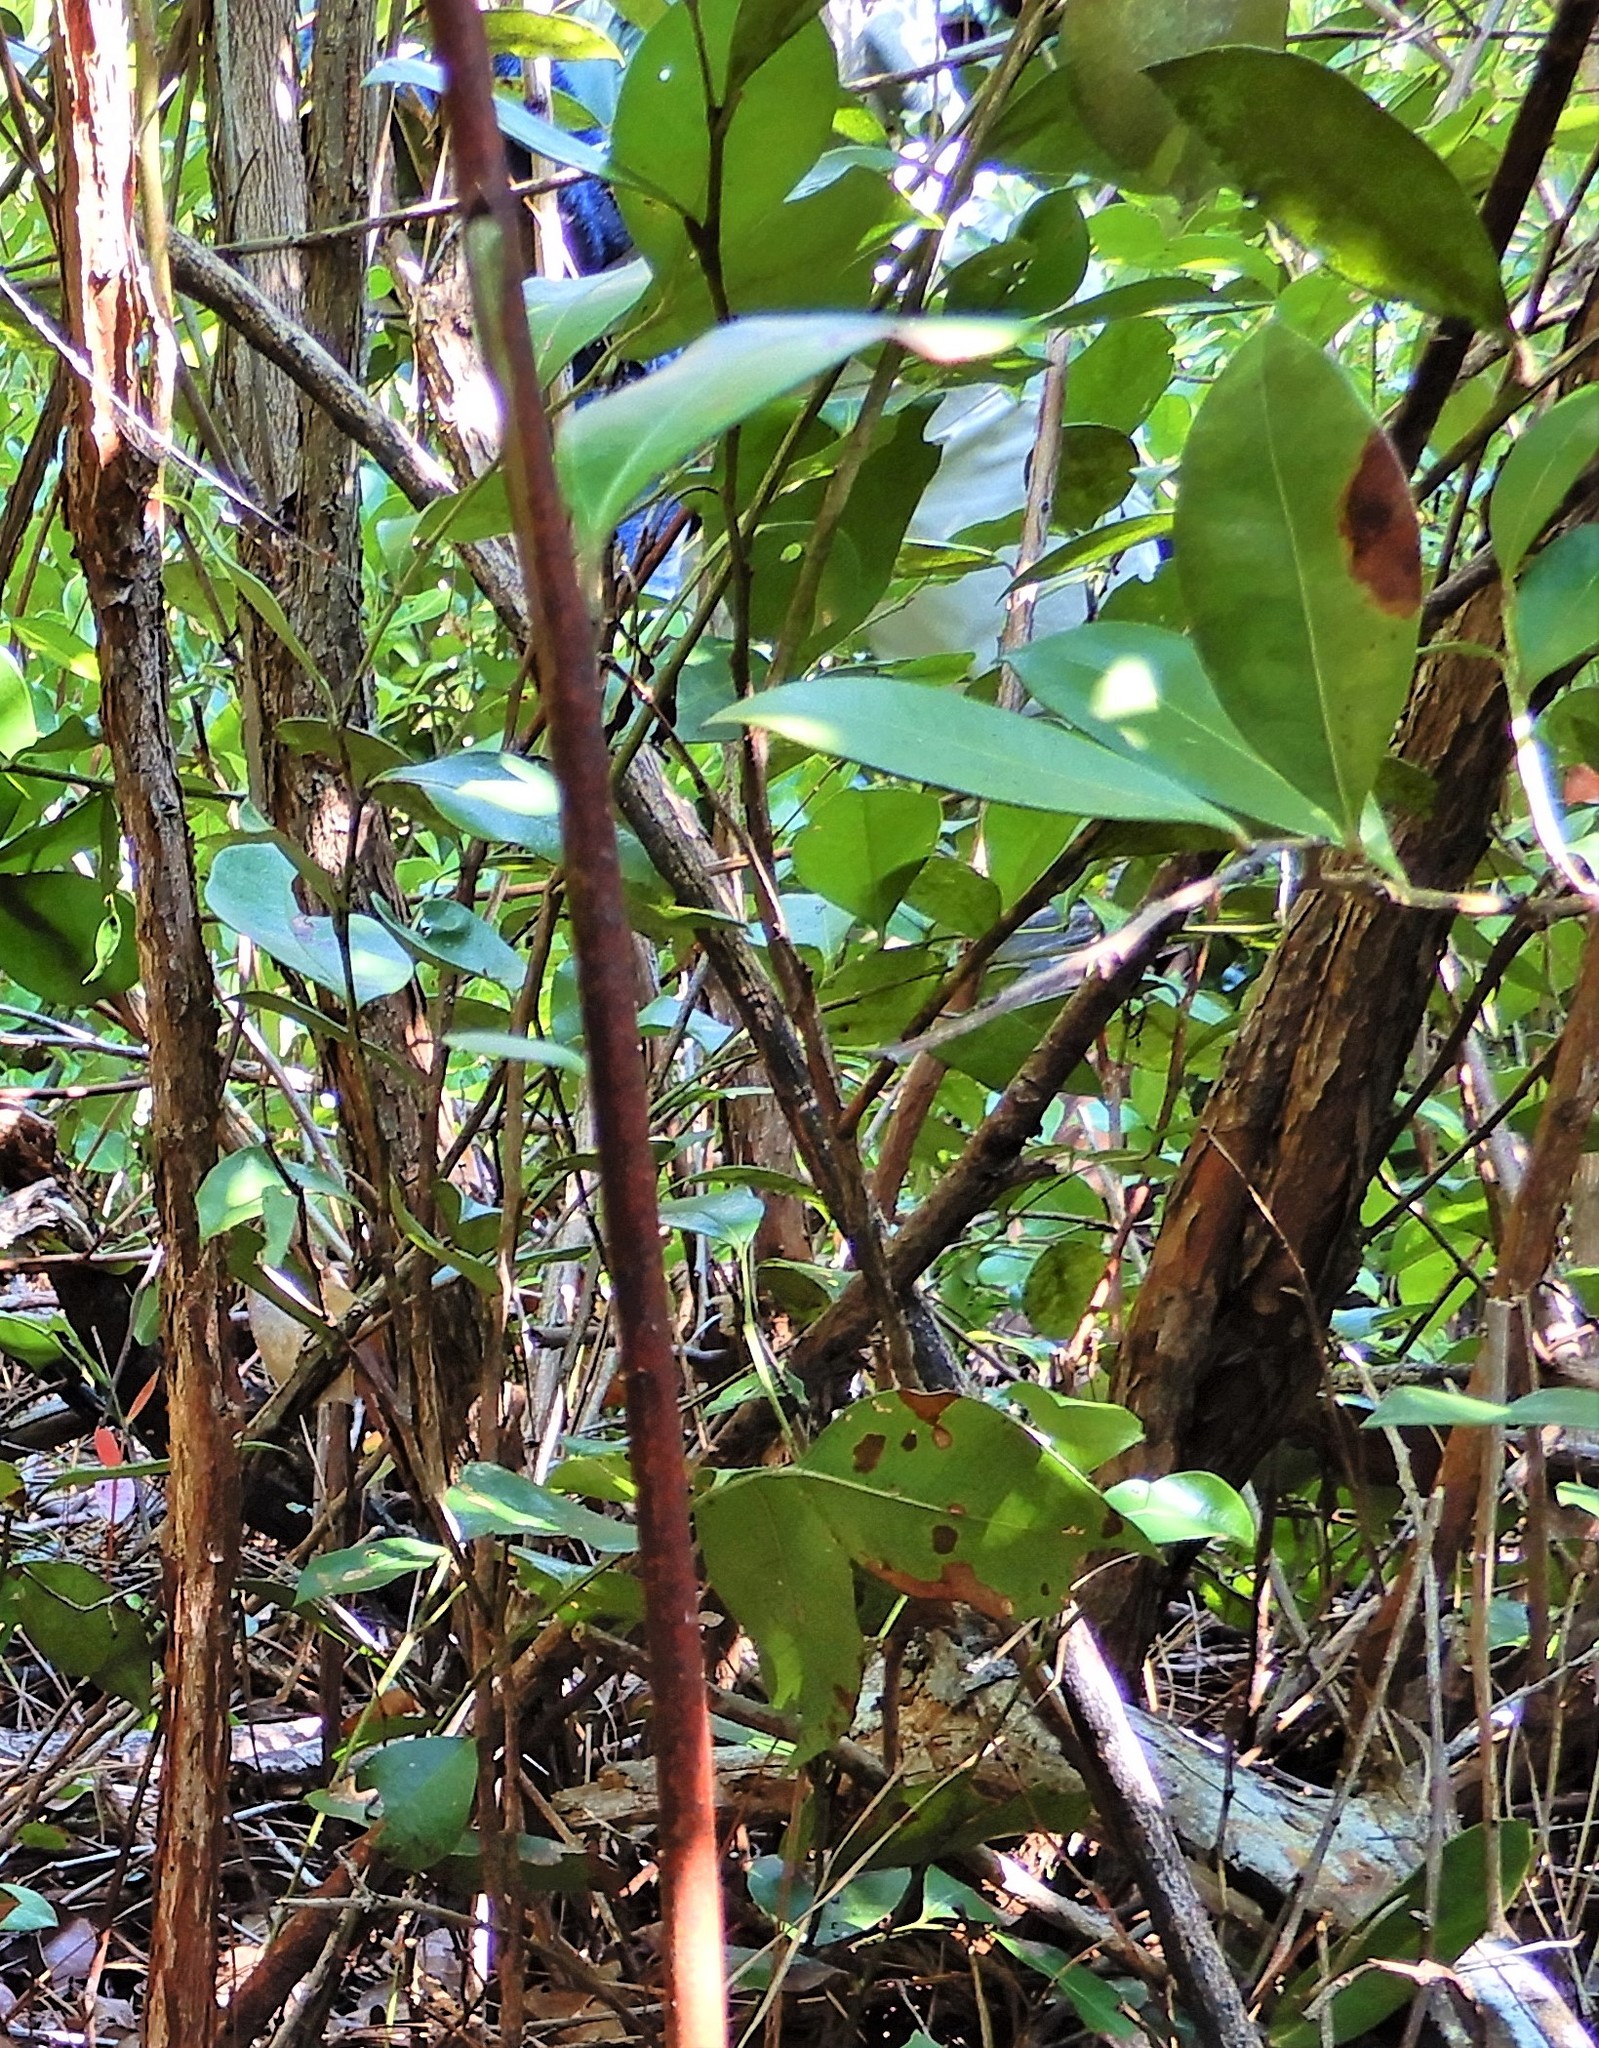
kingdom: Plantae
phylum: Tracheophyta
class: Magnoliopsida
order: Ericales
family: Ericaceae
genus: Lyonia
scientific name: Lyonia lucida
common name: Fetterbush
